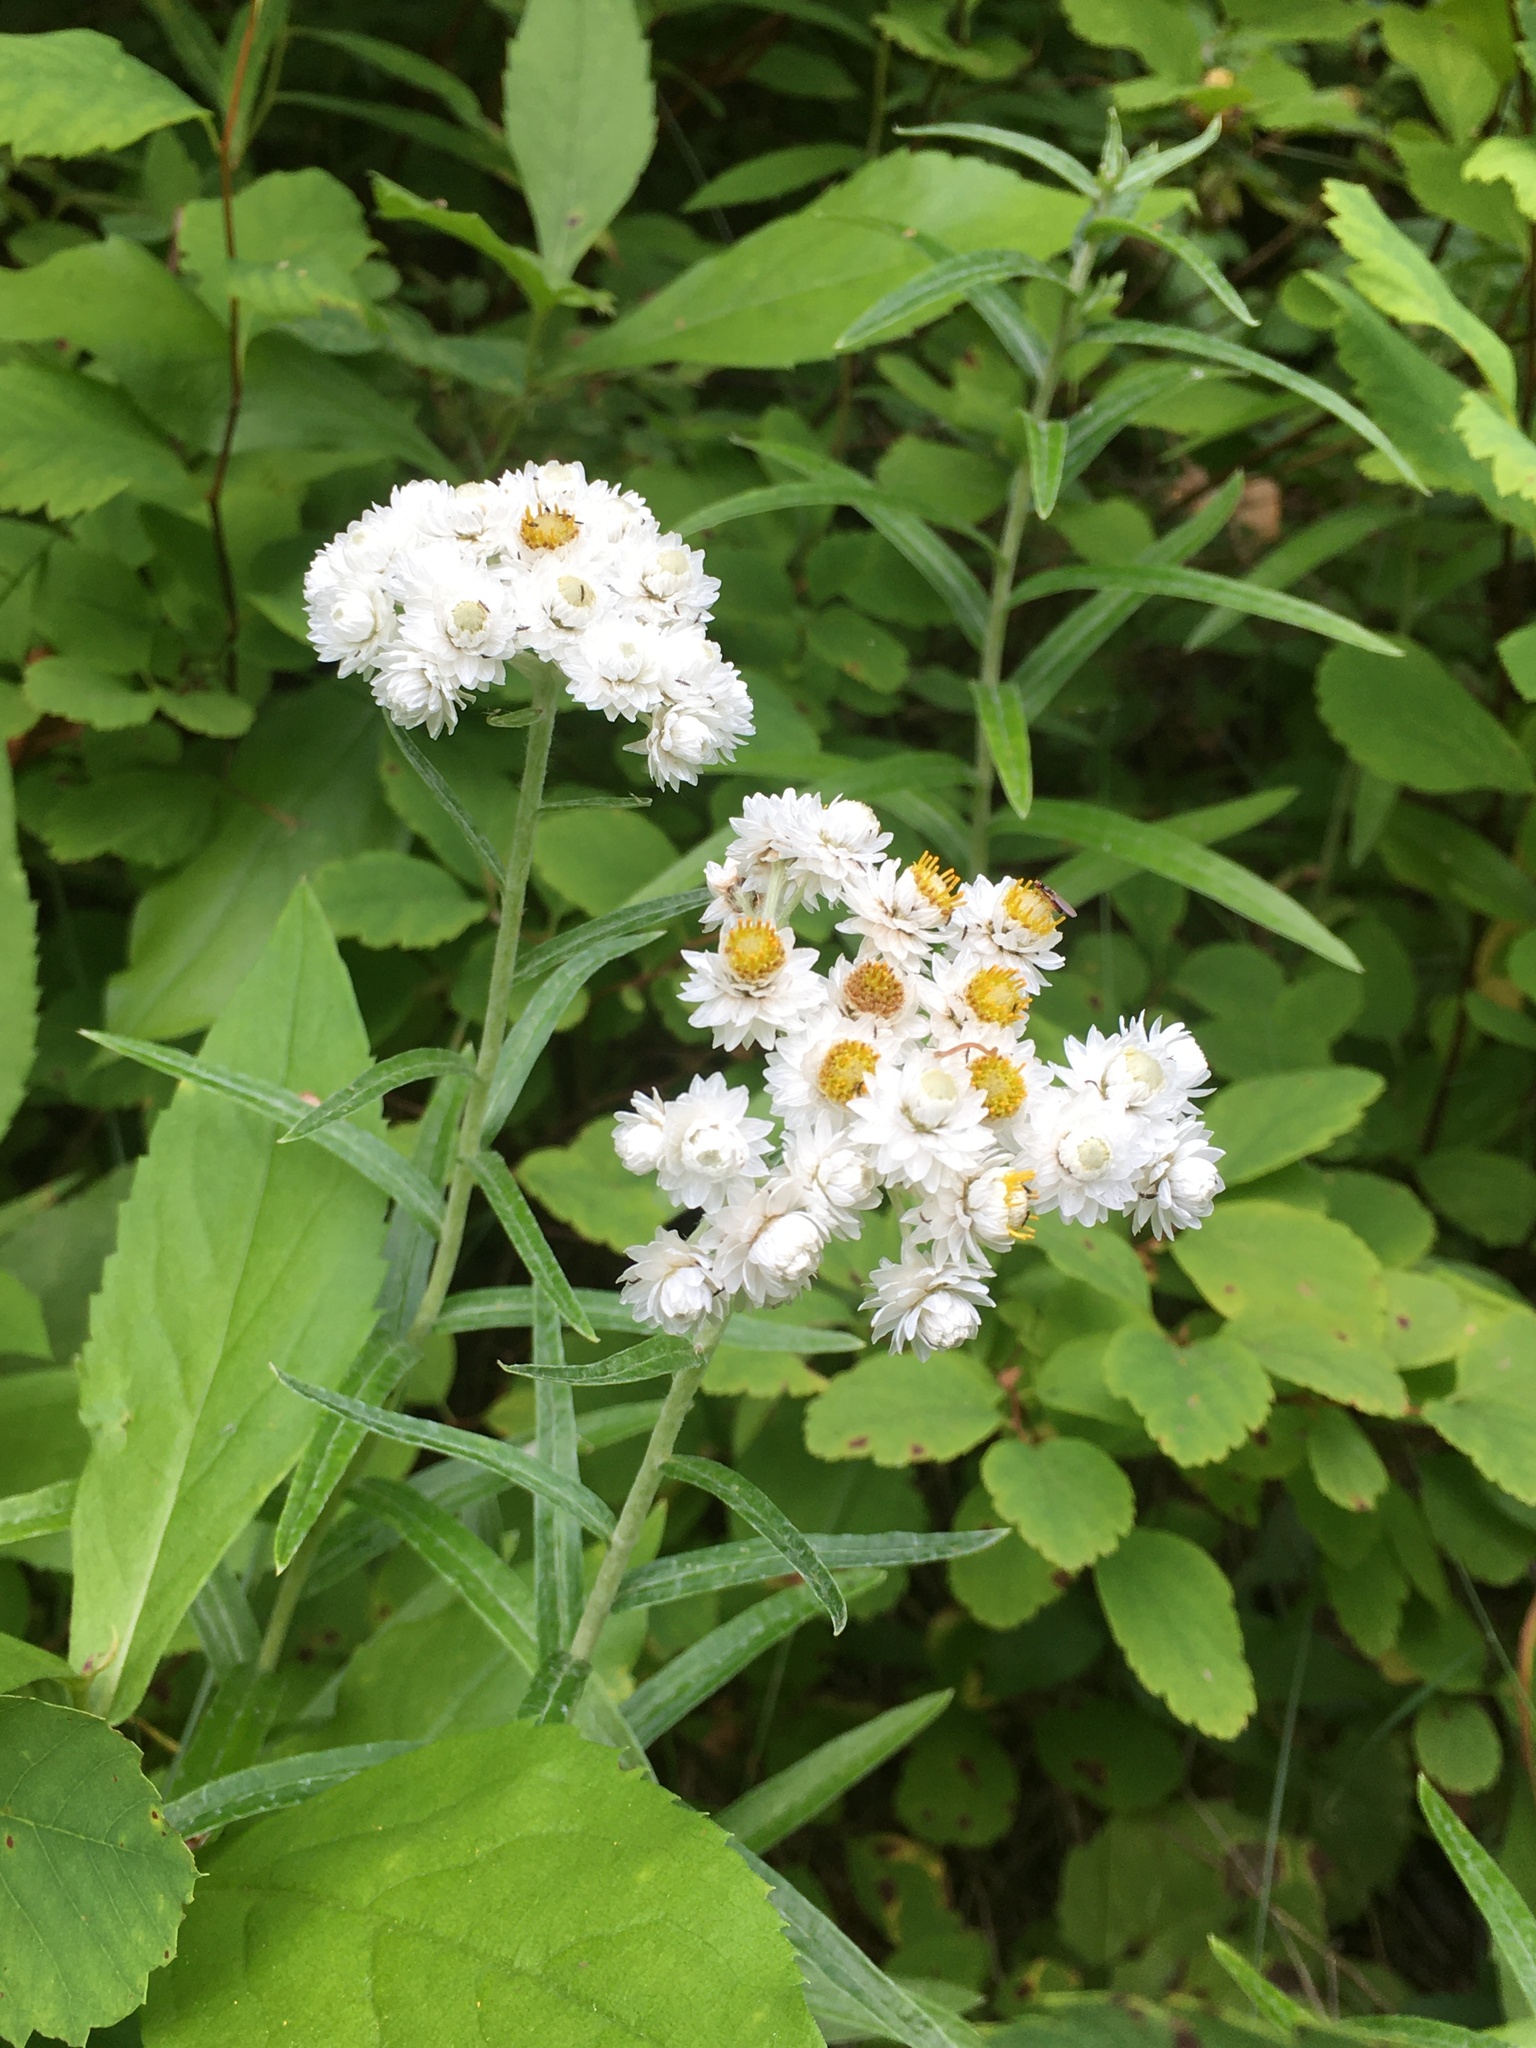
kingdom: Plantae
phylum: Tracheophyta
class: Magnoliopsida
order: Asterales
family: Asteraceae
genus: Anaphalis
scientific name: Anaphalis margaritacea
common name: Pearly everlasting
